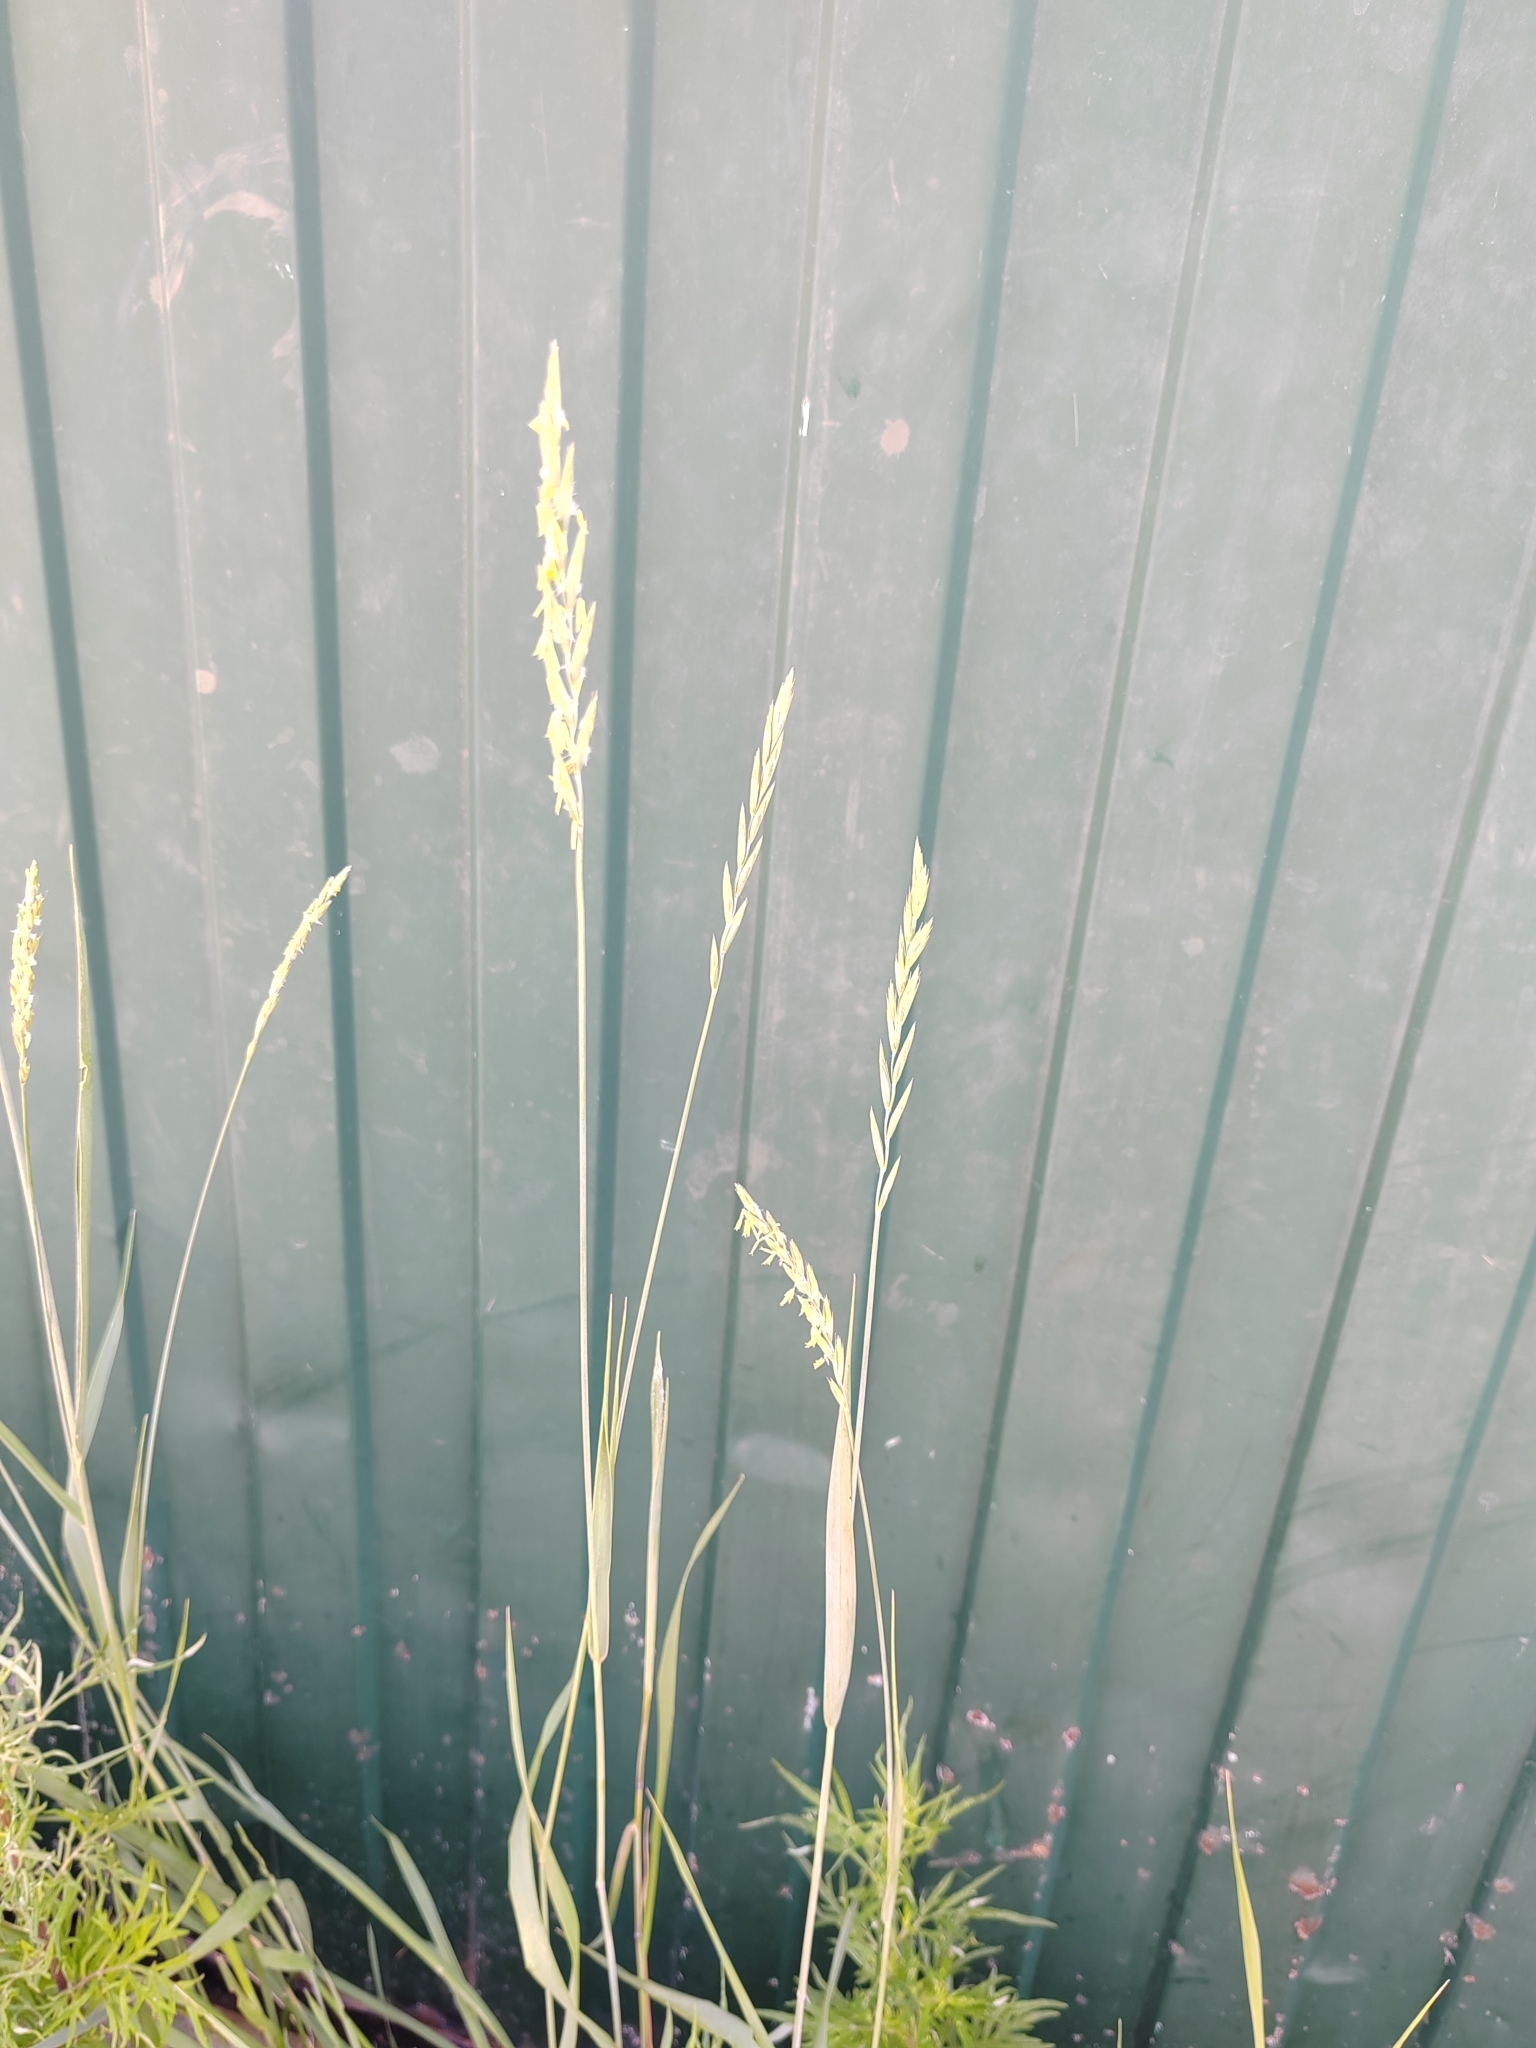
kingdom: Plantae
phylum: Tracheophyta
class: Liliopsida
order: Poales
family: Poaceae
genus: Elymus
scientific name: Elymus repens
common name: Quackgrass
